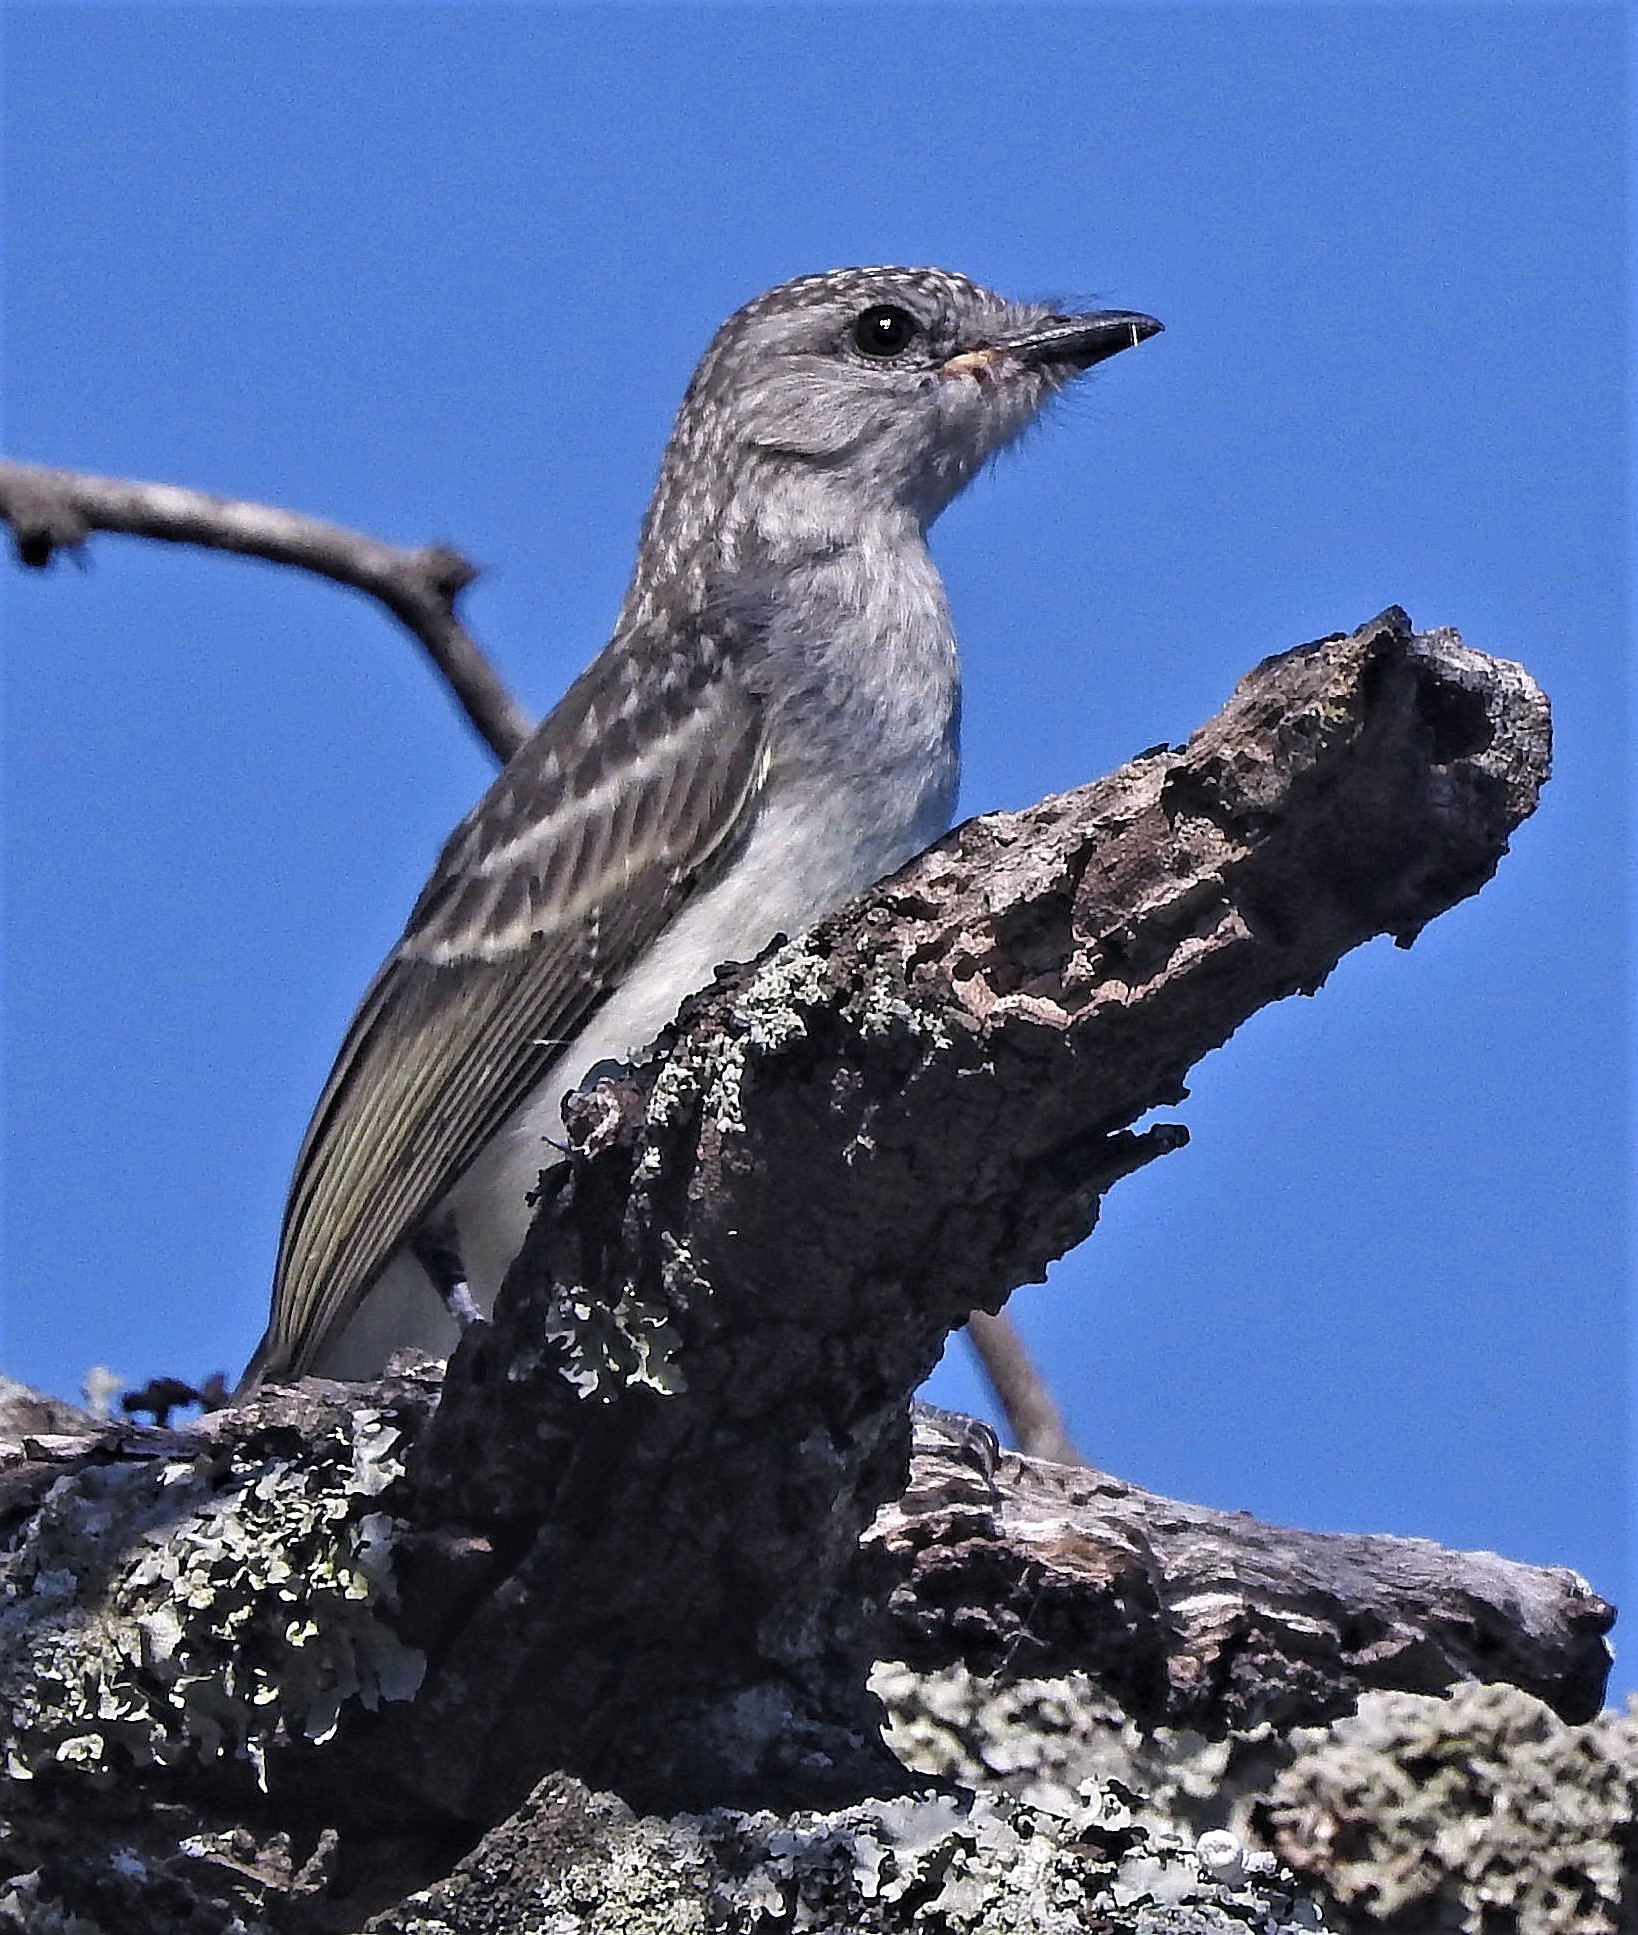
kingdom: Animalia
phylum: Chordata
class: Aves
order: Passeriformes
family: Tyrannidae
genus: Suiriri
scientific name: Suiriri suiriri
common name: Suiriri flycatcher
